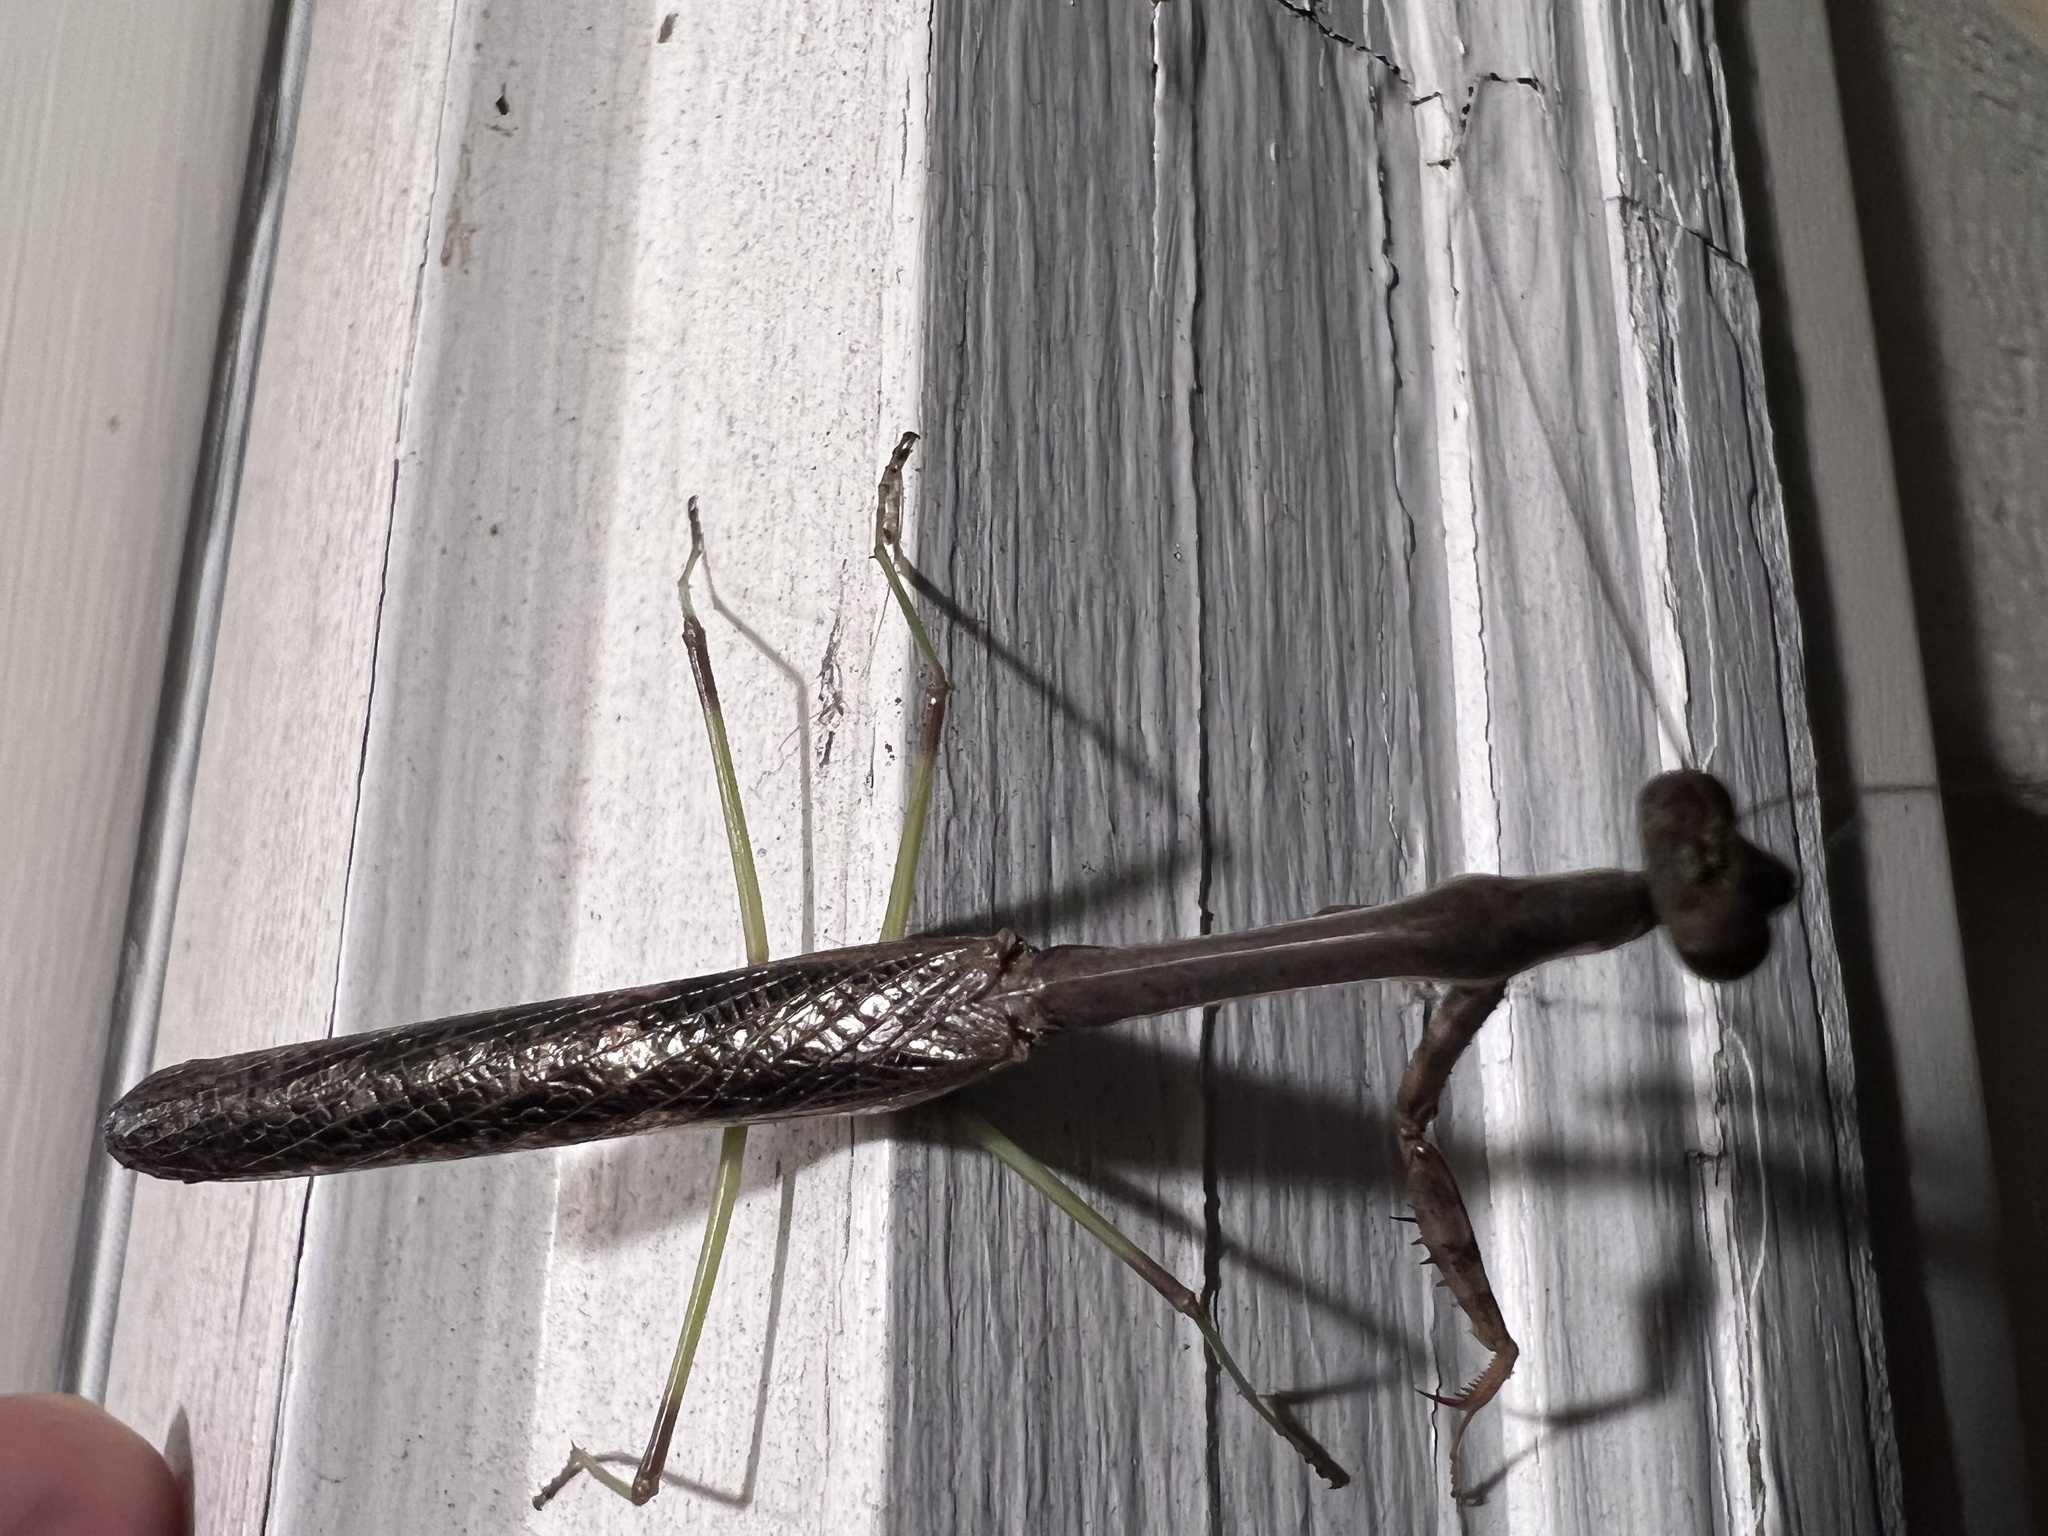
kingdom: Animalia
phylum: Arthropoda
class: Insecta
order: Mantodea
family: Mantidae
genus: Stagmomantis
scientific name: Stagmomantis carolina
